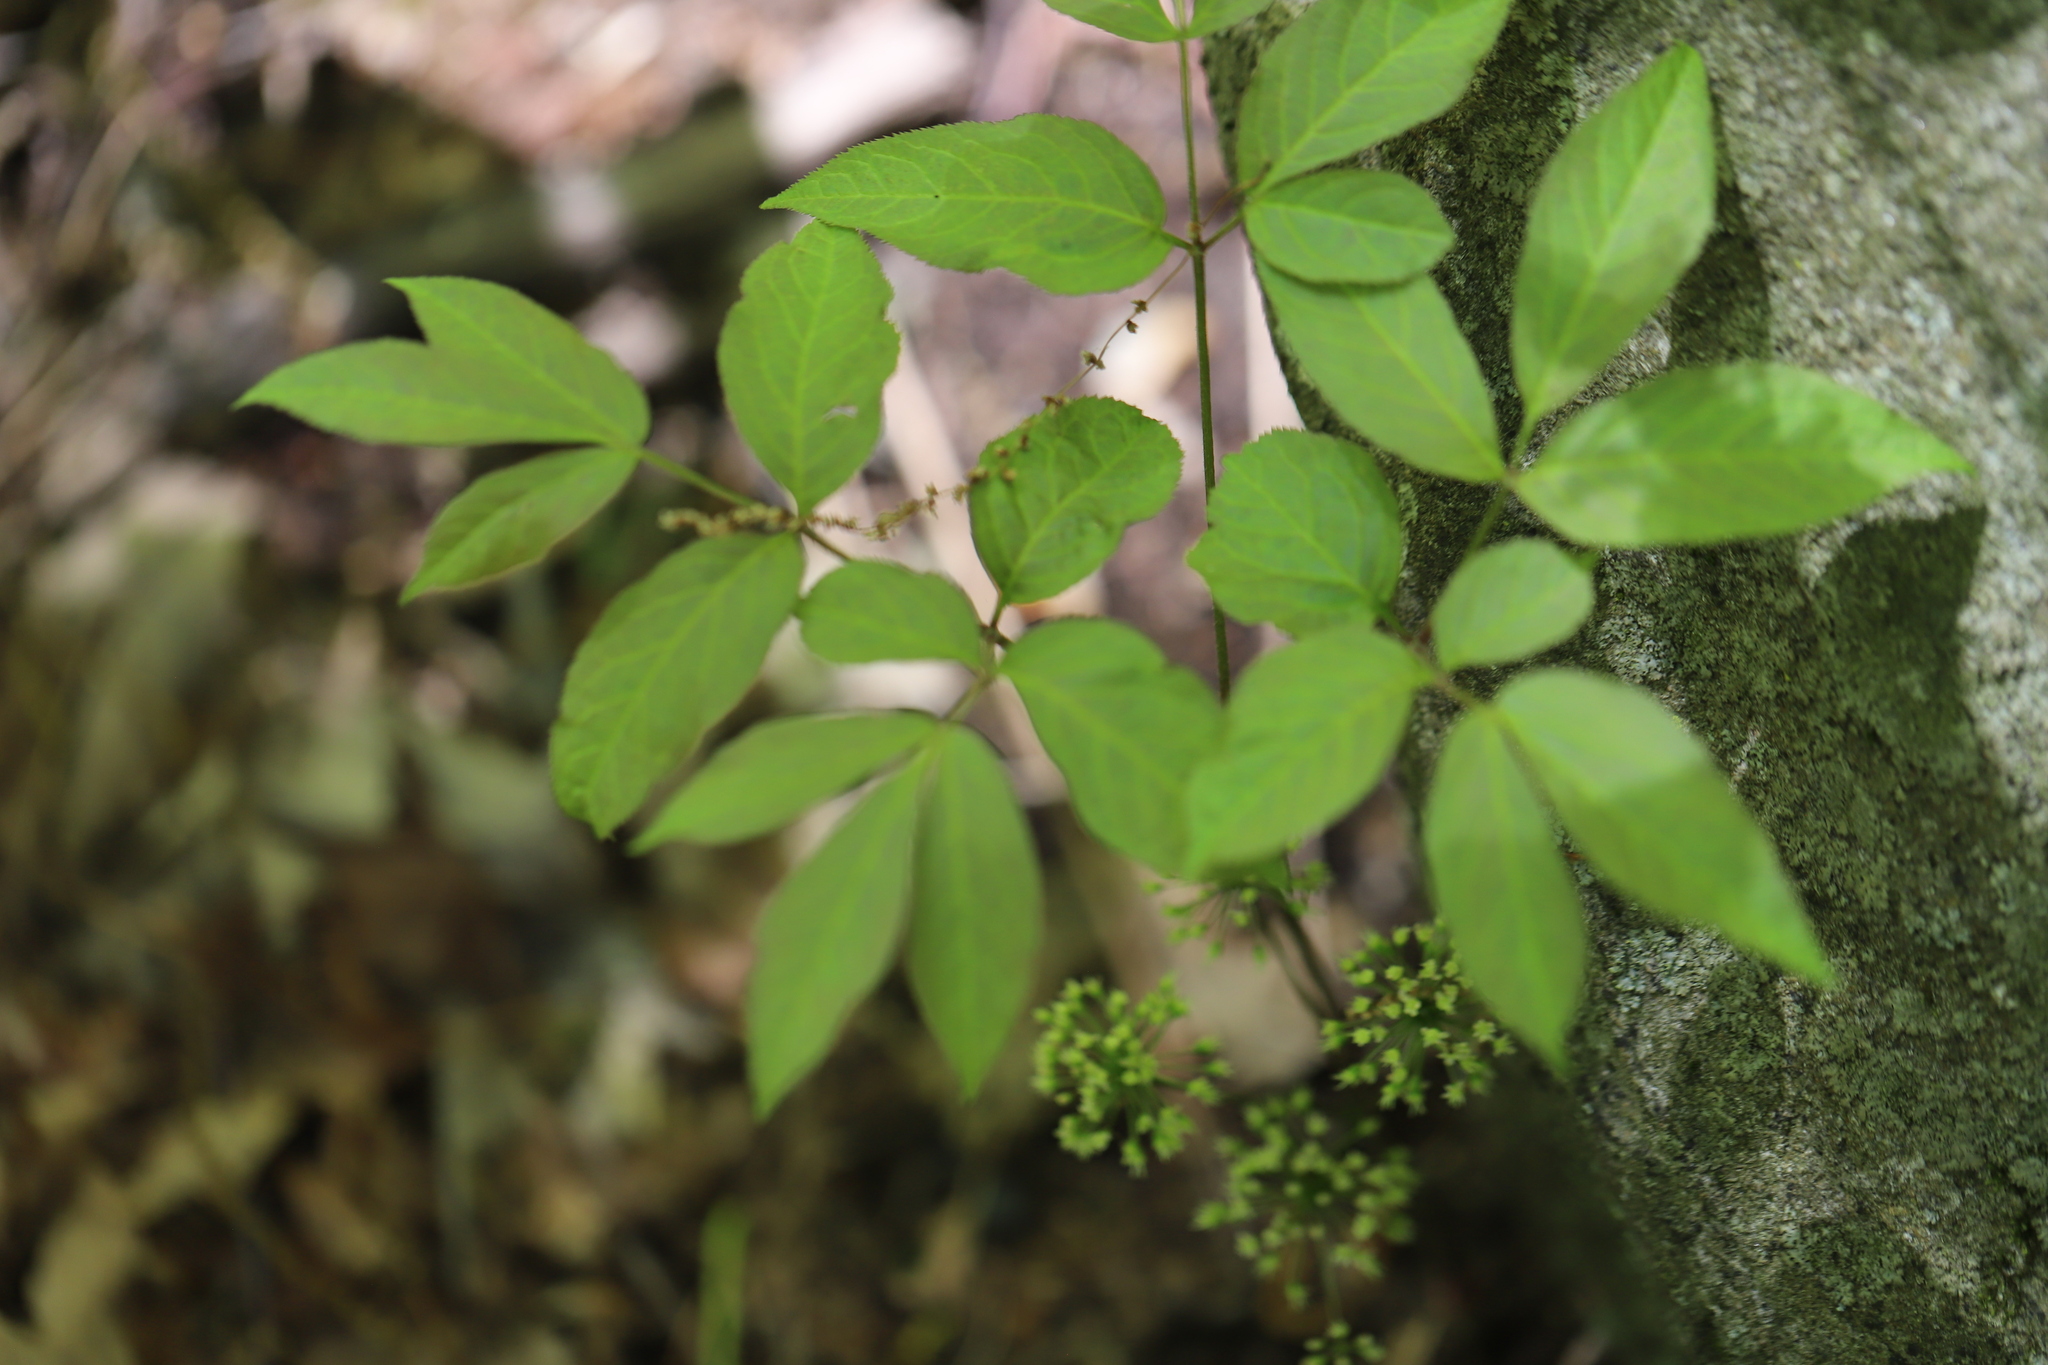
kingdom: Plantae
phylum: Tracheophyta
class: Magnoliopsida
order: Apiales
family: Araliaceae
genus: Aralia
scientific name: Aralia nudicaulis
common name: Wild sarsaparilla
